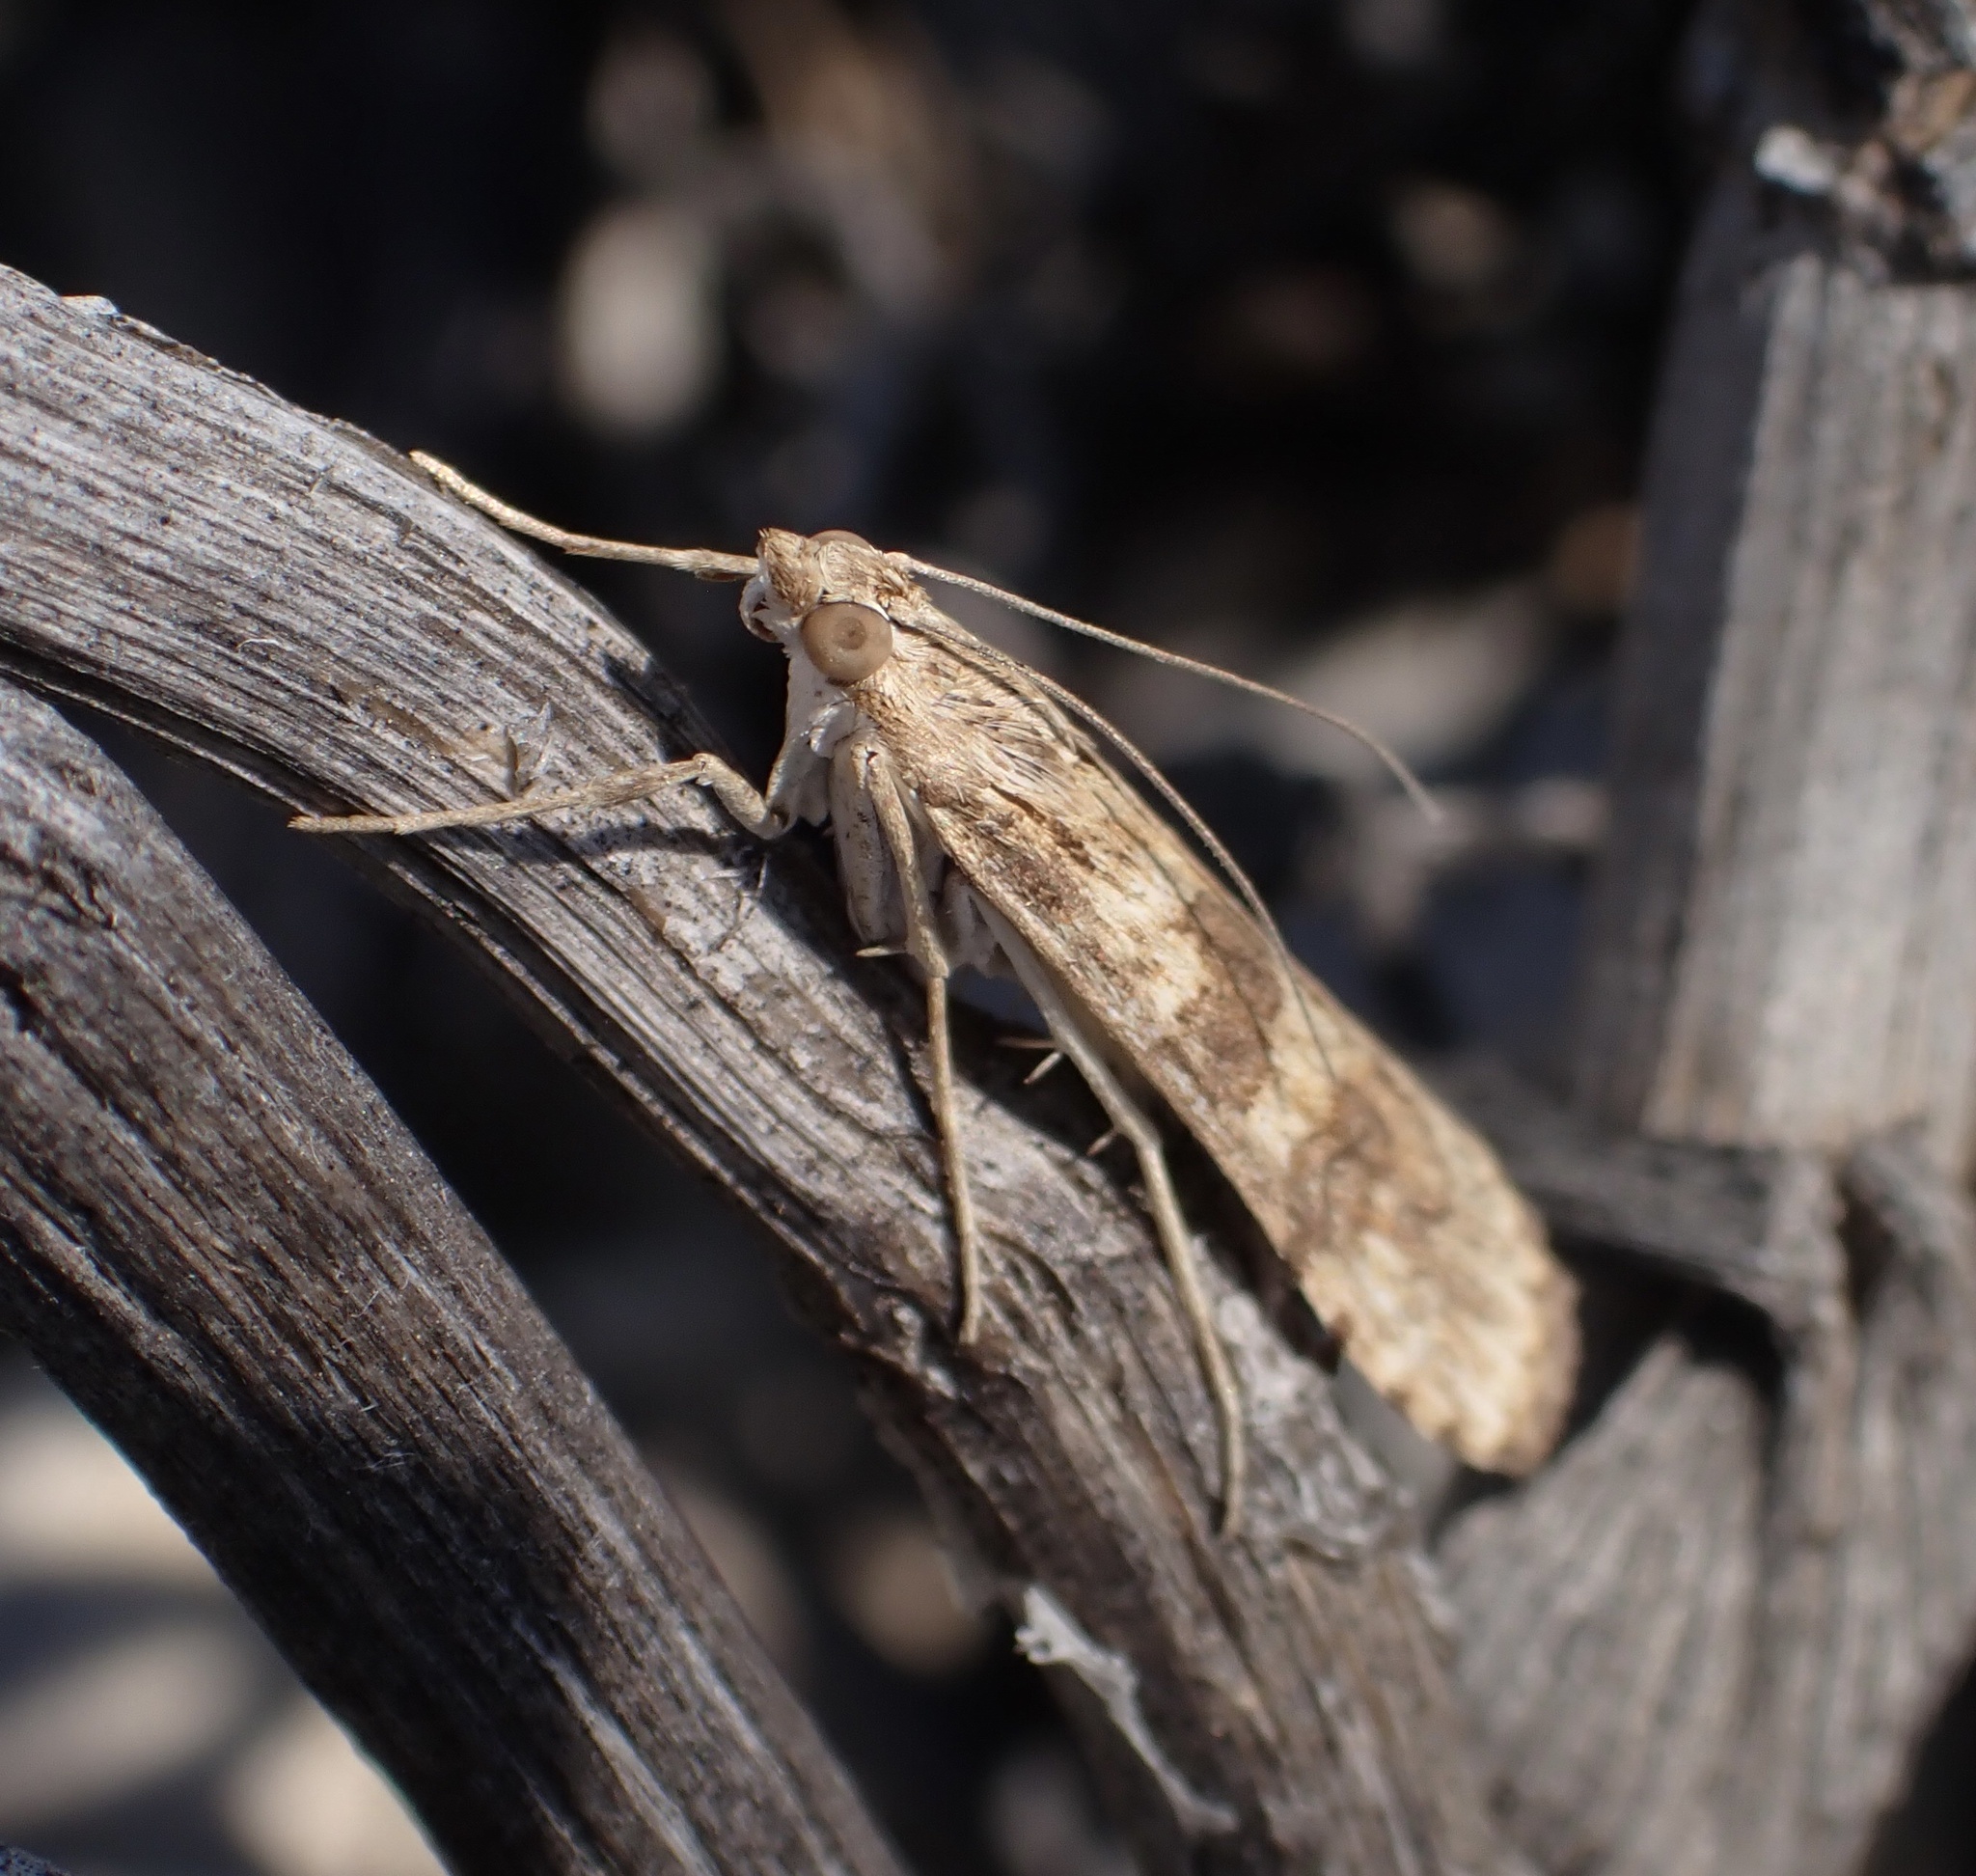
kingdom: Animalia
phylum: Arthropoda
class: Insecta
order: Lepidoptera
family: Crambidae
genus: Nomophila
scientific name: Nomophila noctuella
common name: Rush veneer
